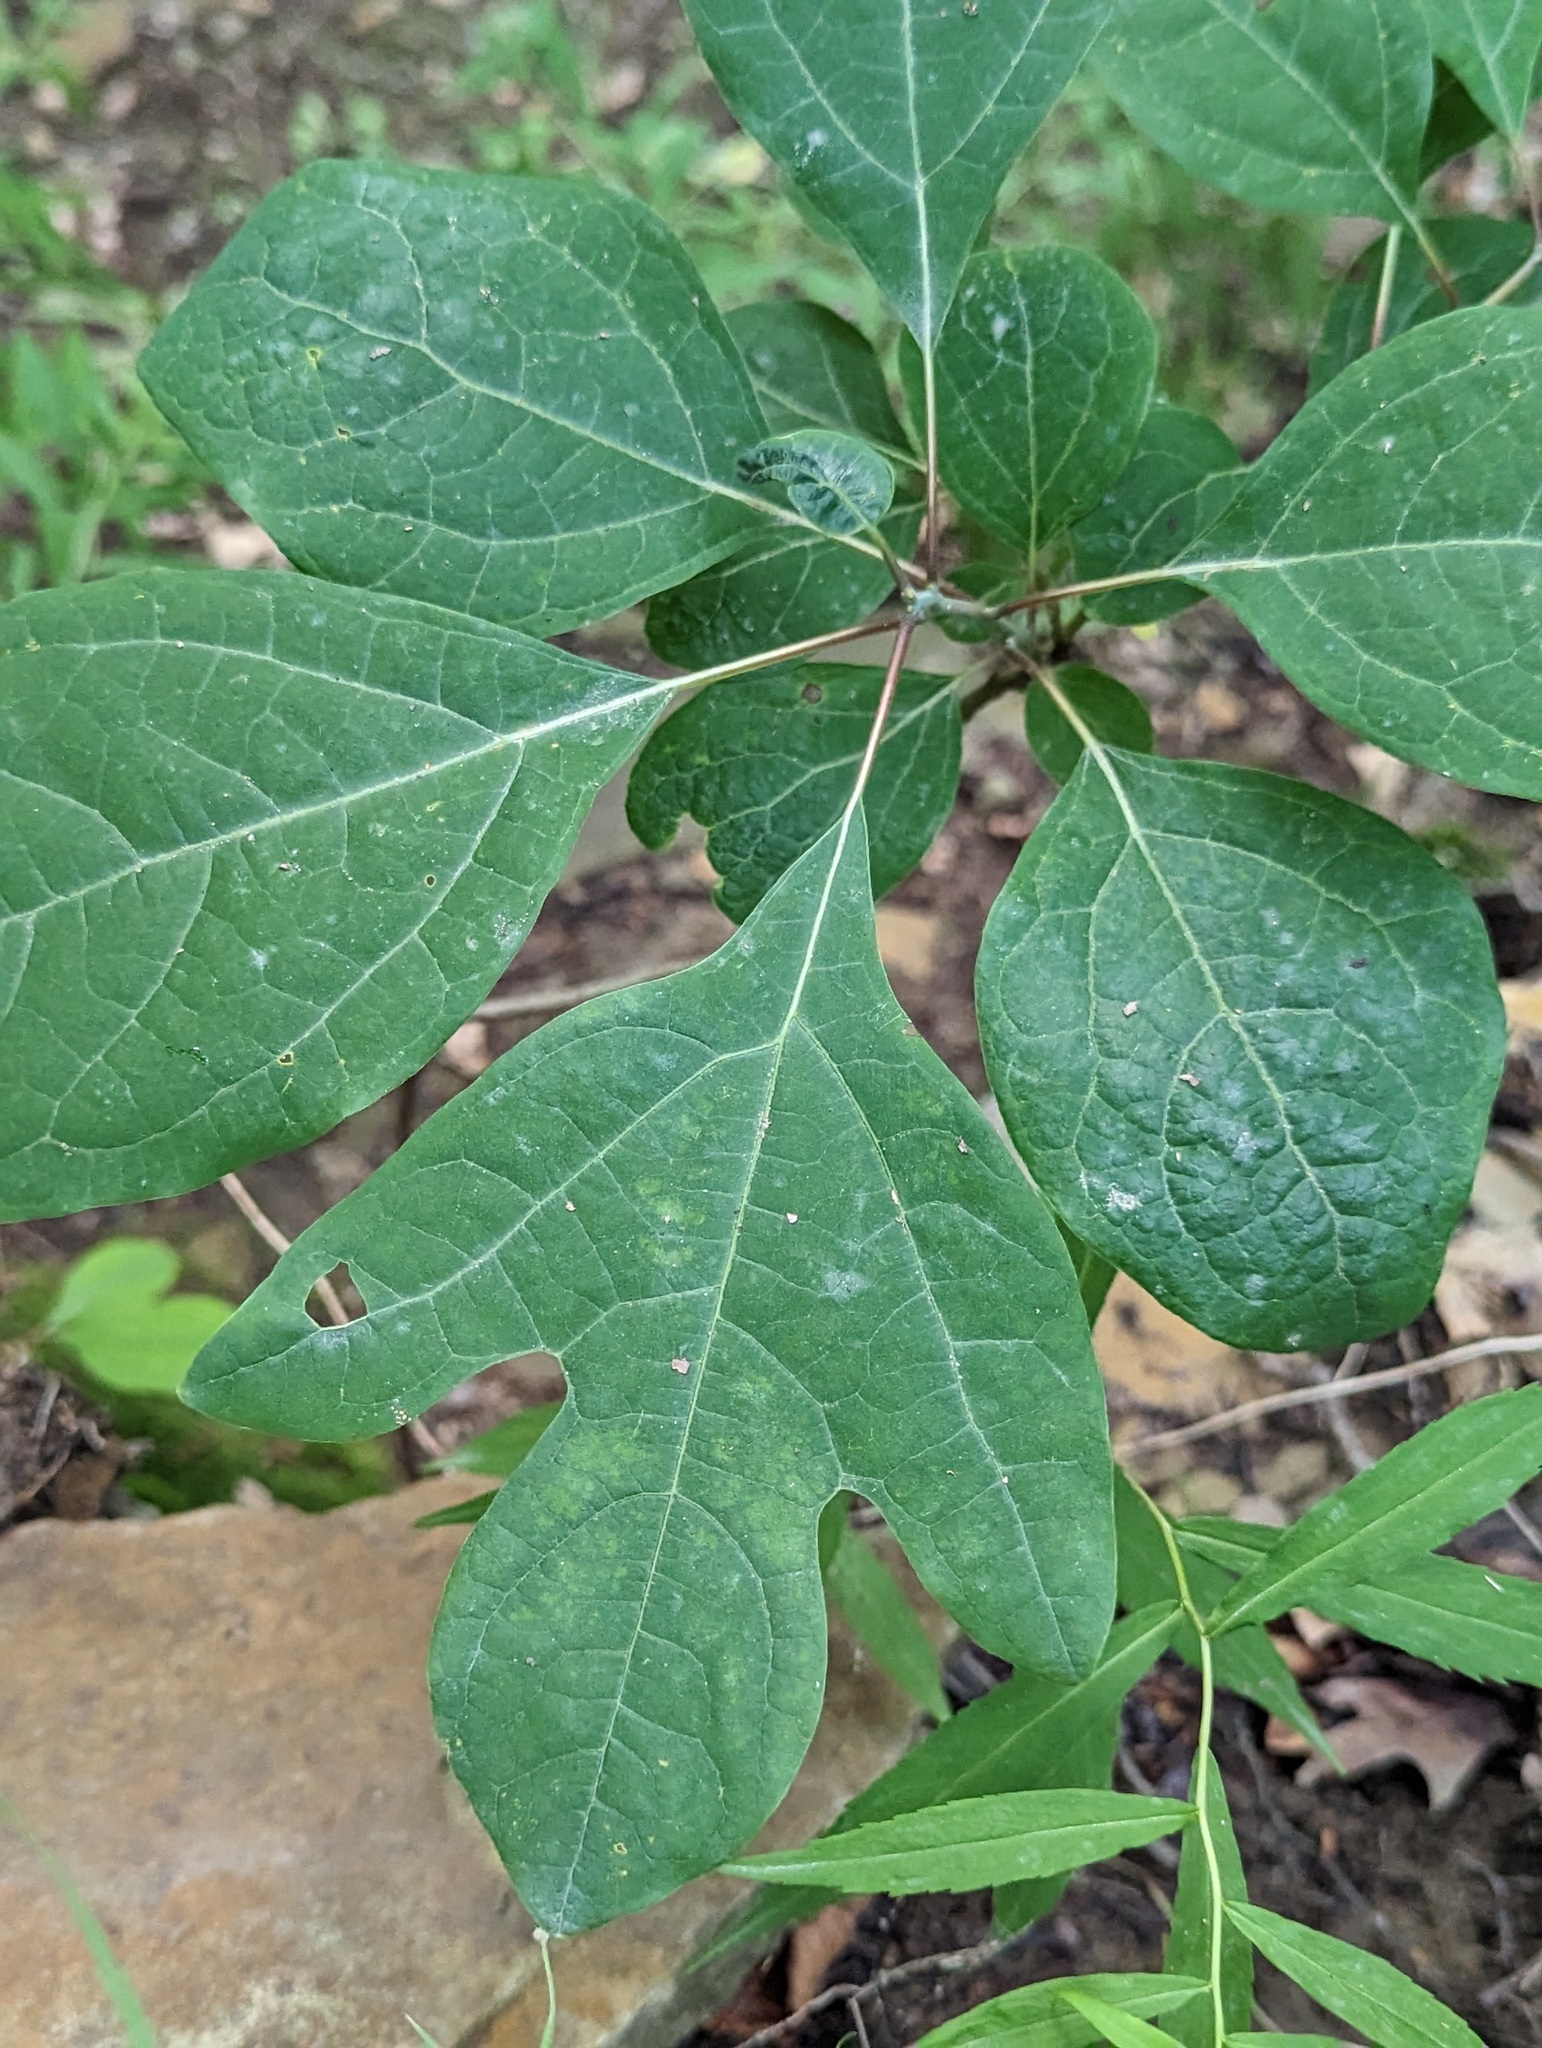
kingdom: Plantae
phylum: Tracheophyta
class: Magnoliopsida
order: Laurales
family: Lauraceae
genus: Sassafras
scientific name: Sassafras albidum
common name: Sassafras
